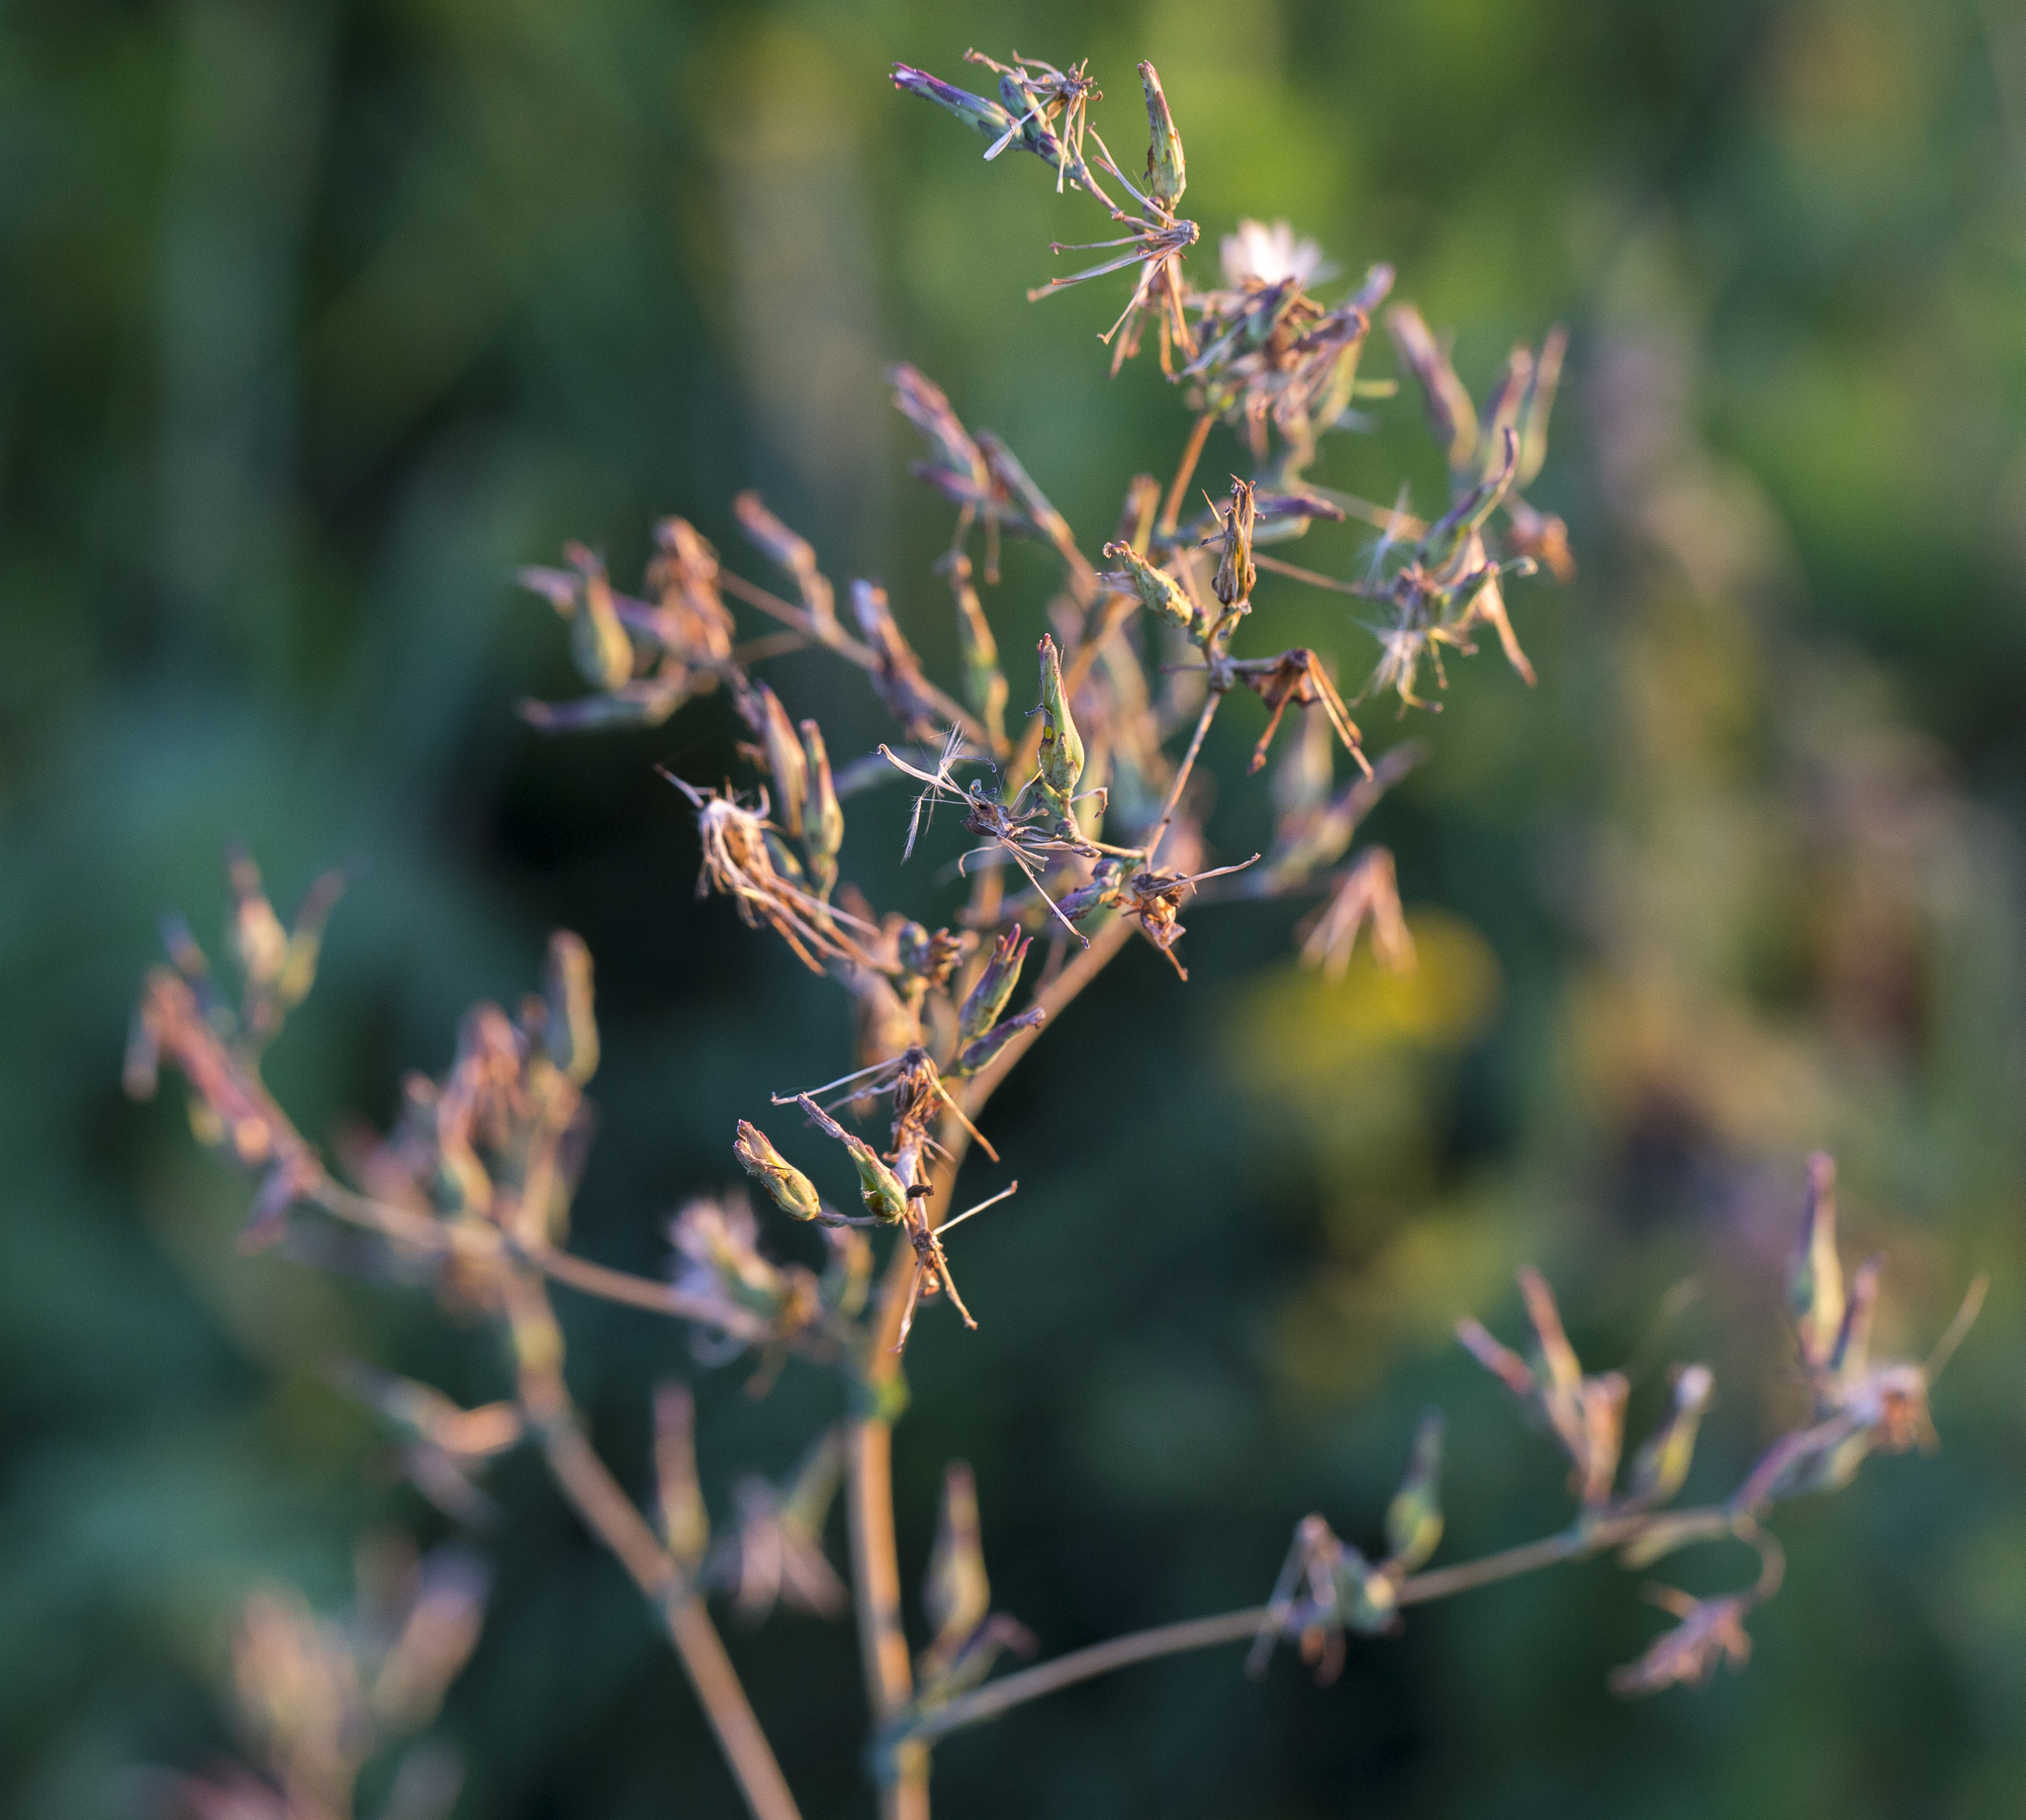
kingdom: Plantae
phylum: Tracheophyta
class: Magnoliopsida
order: Asterales
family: Asteraceae
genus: Lactuca
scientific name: Lactuca serriola
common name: Prickly lettuce
